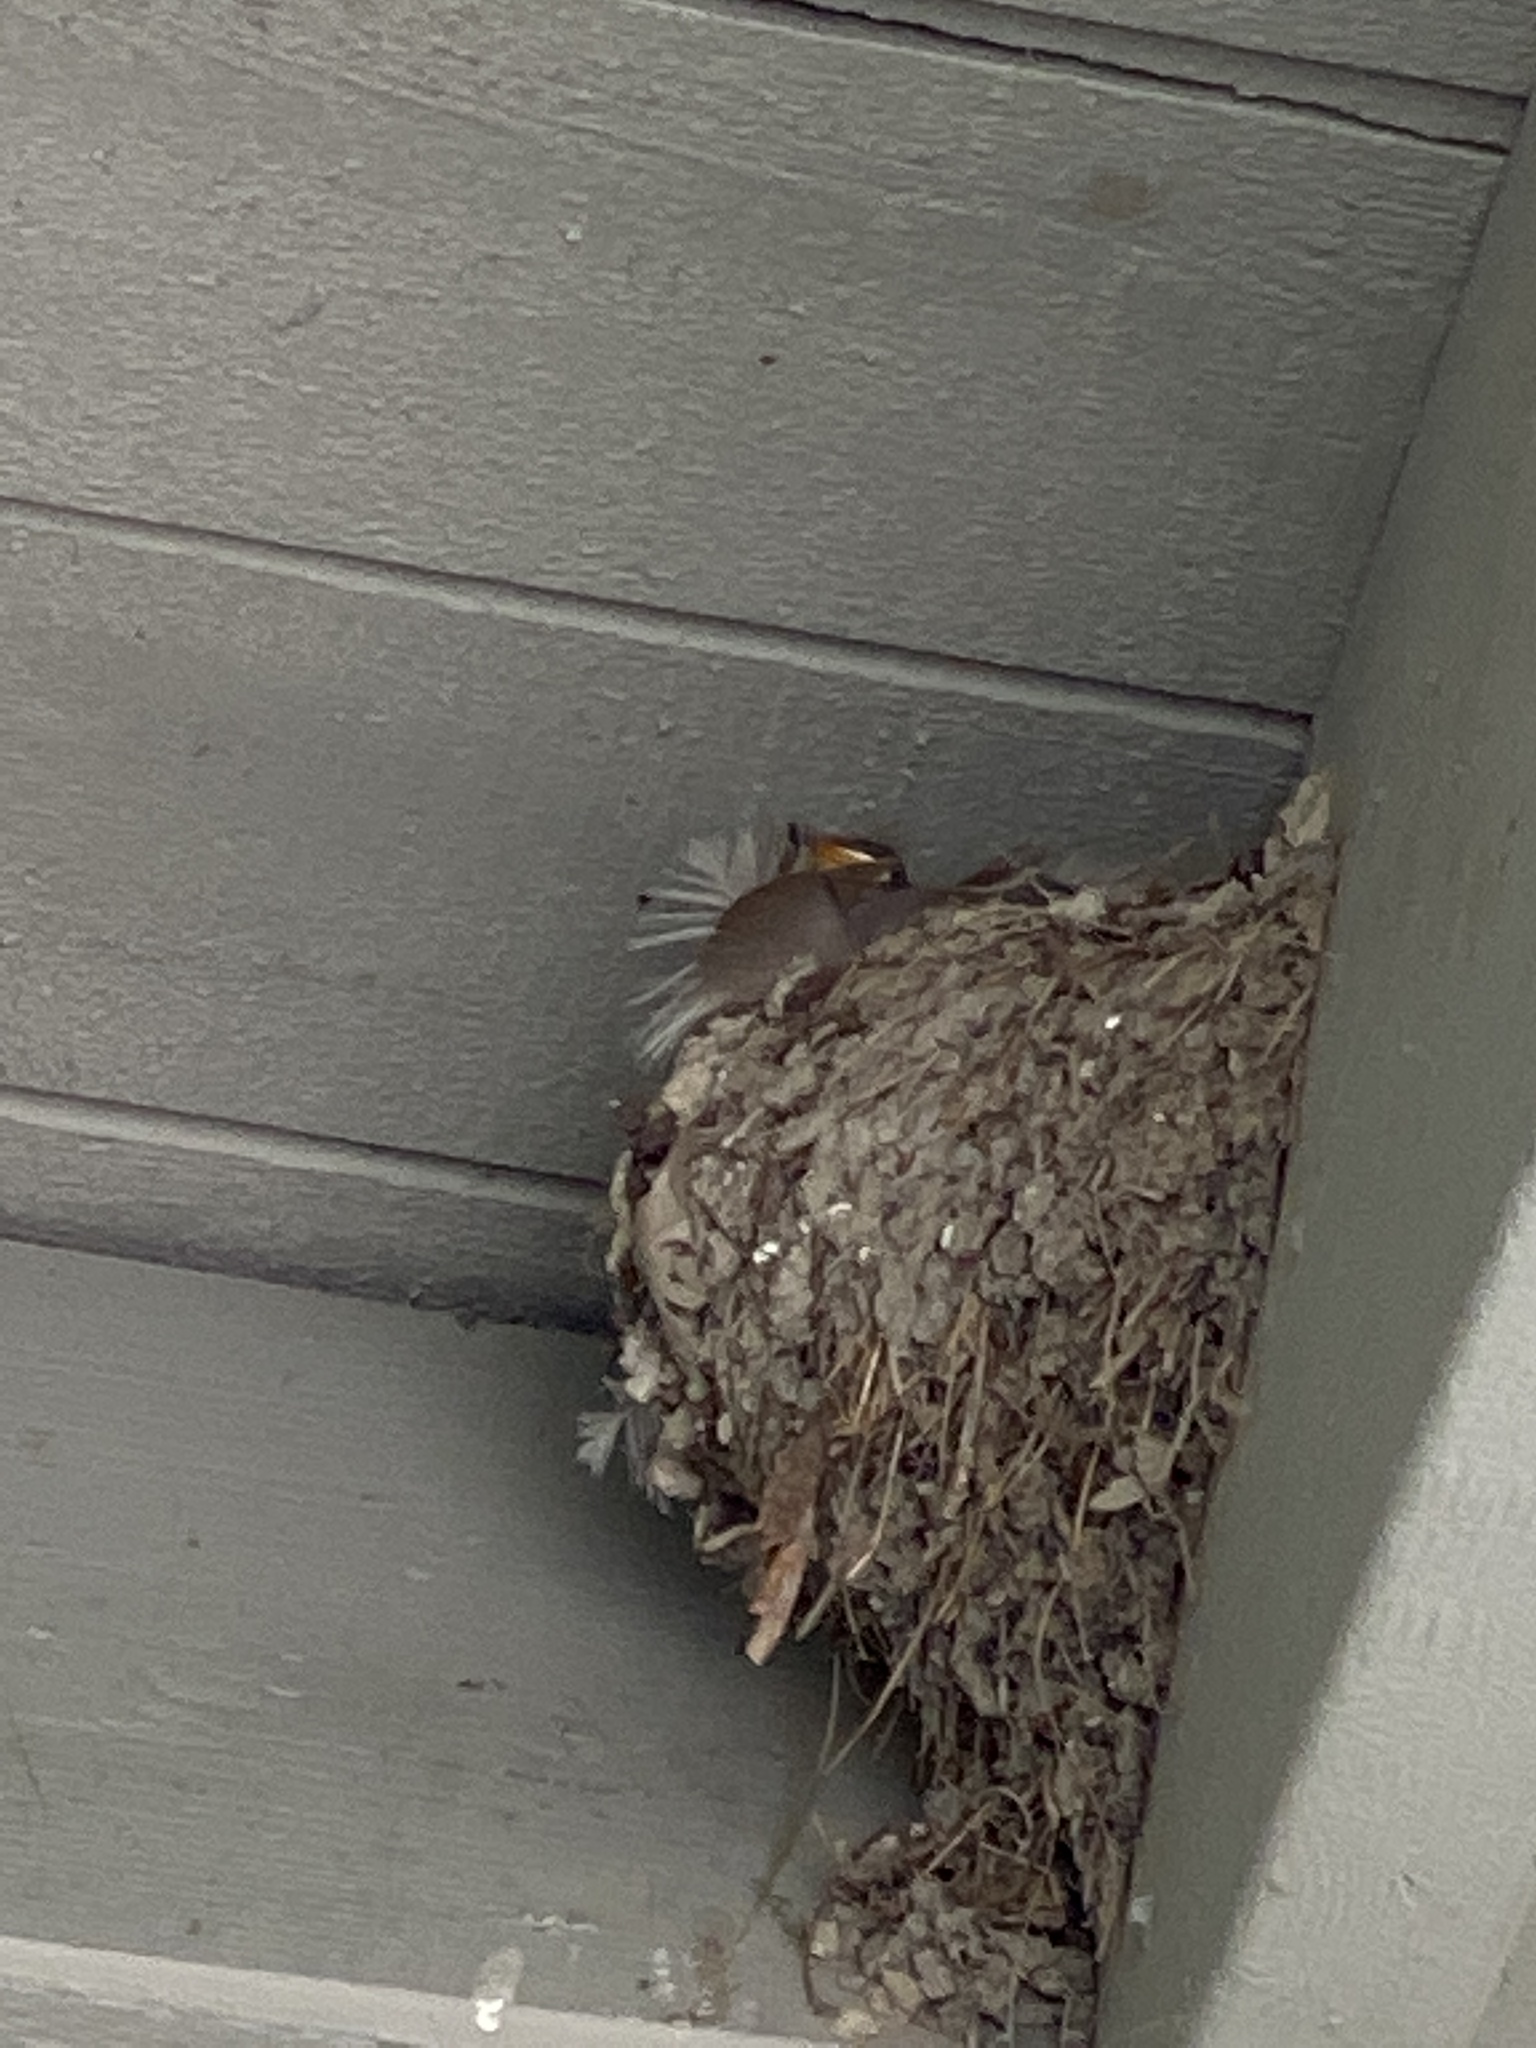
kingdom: Animalia
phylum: Chordata
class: Aves
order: Passeriformes
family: Hirundinidae
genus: Hirundo
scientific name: Hirundo rustica
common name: Barn swallow
